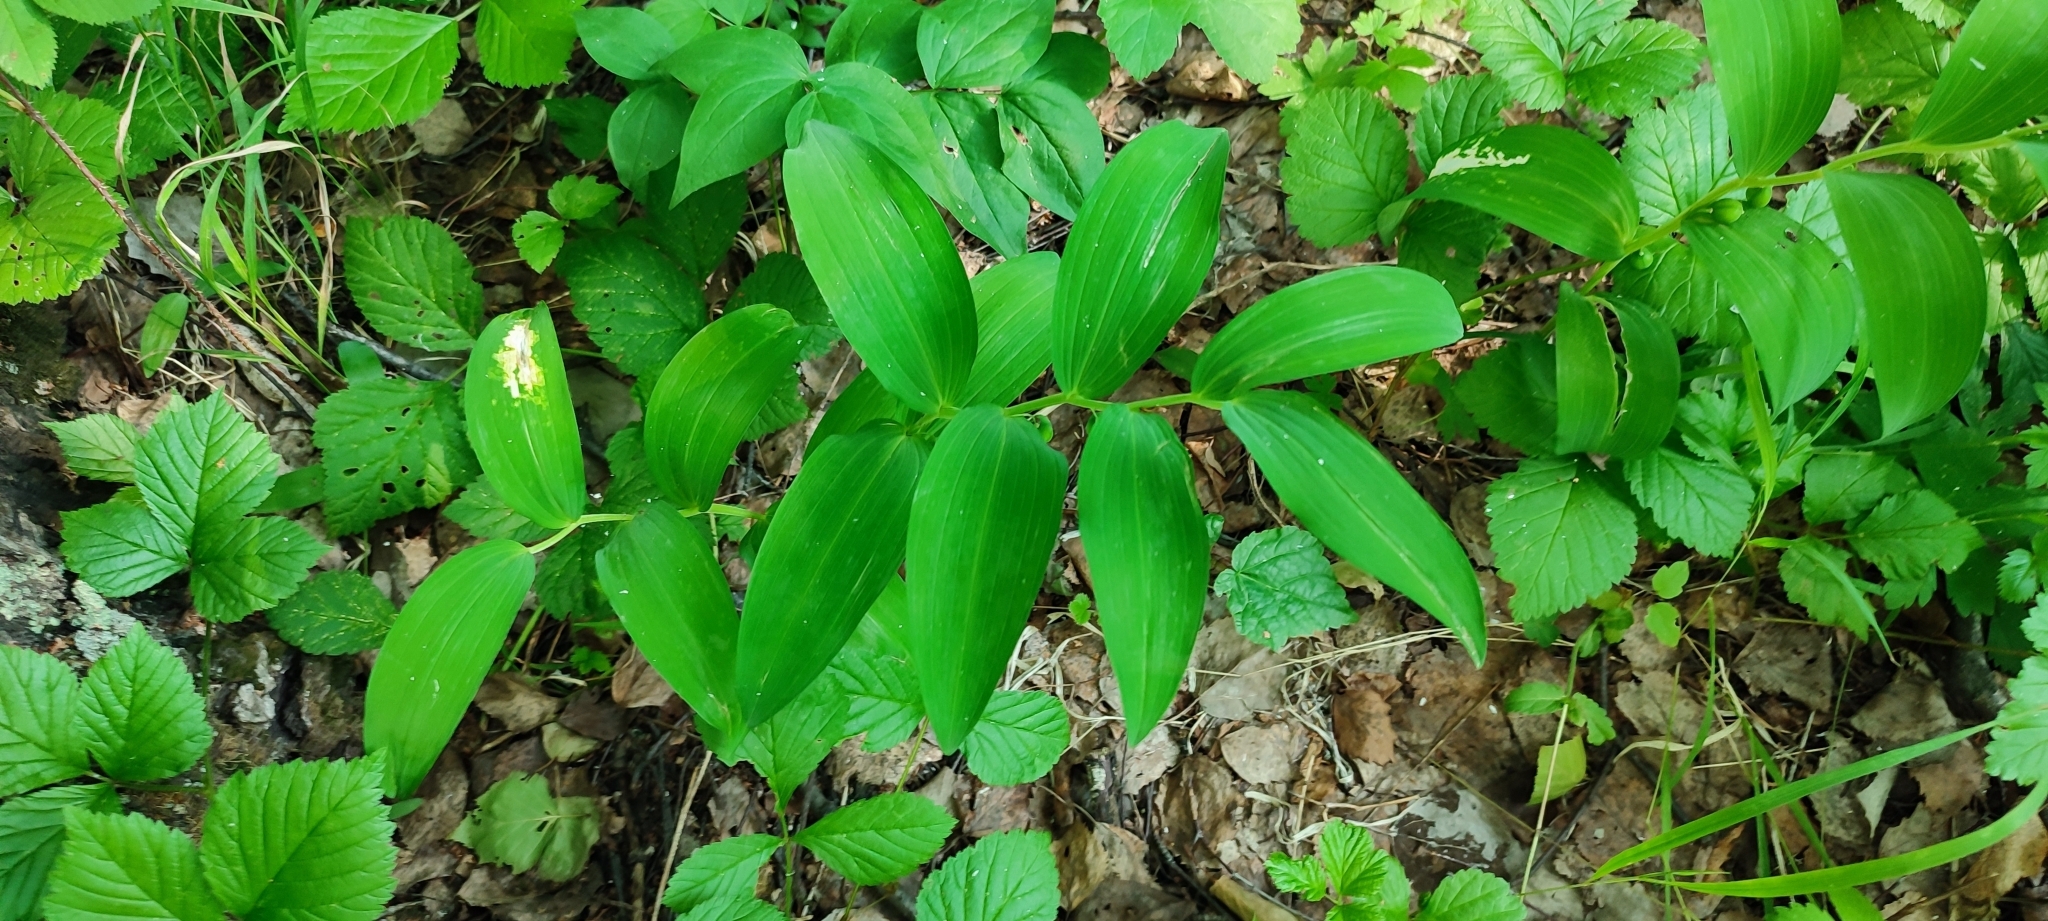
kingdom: Plantae
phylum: Tracheophyta
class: Liliopsida
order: Asparagales
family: Asparagaceae
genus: Polygonatum
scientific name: Polygonatum odoratum
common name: Angular solomon's-seal
